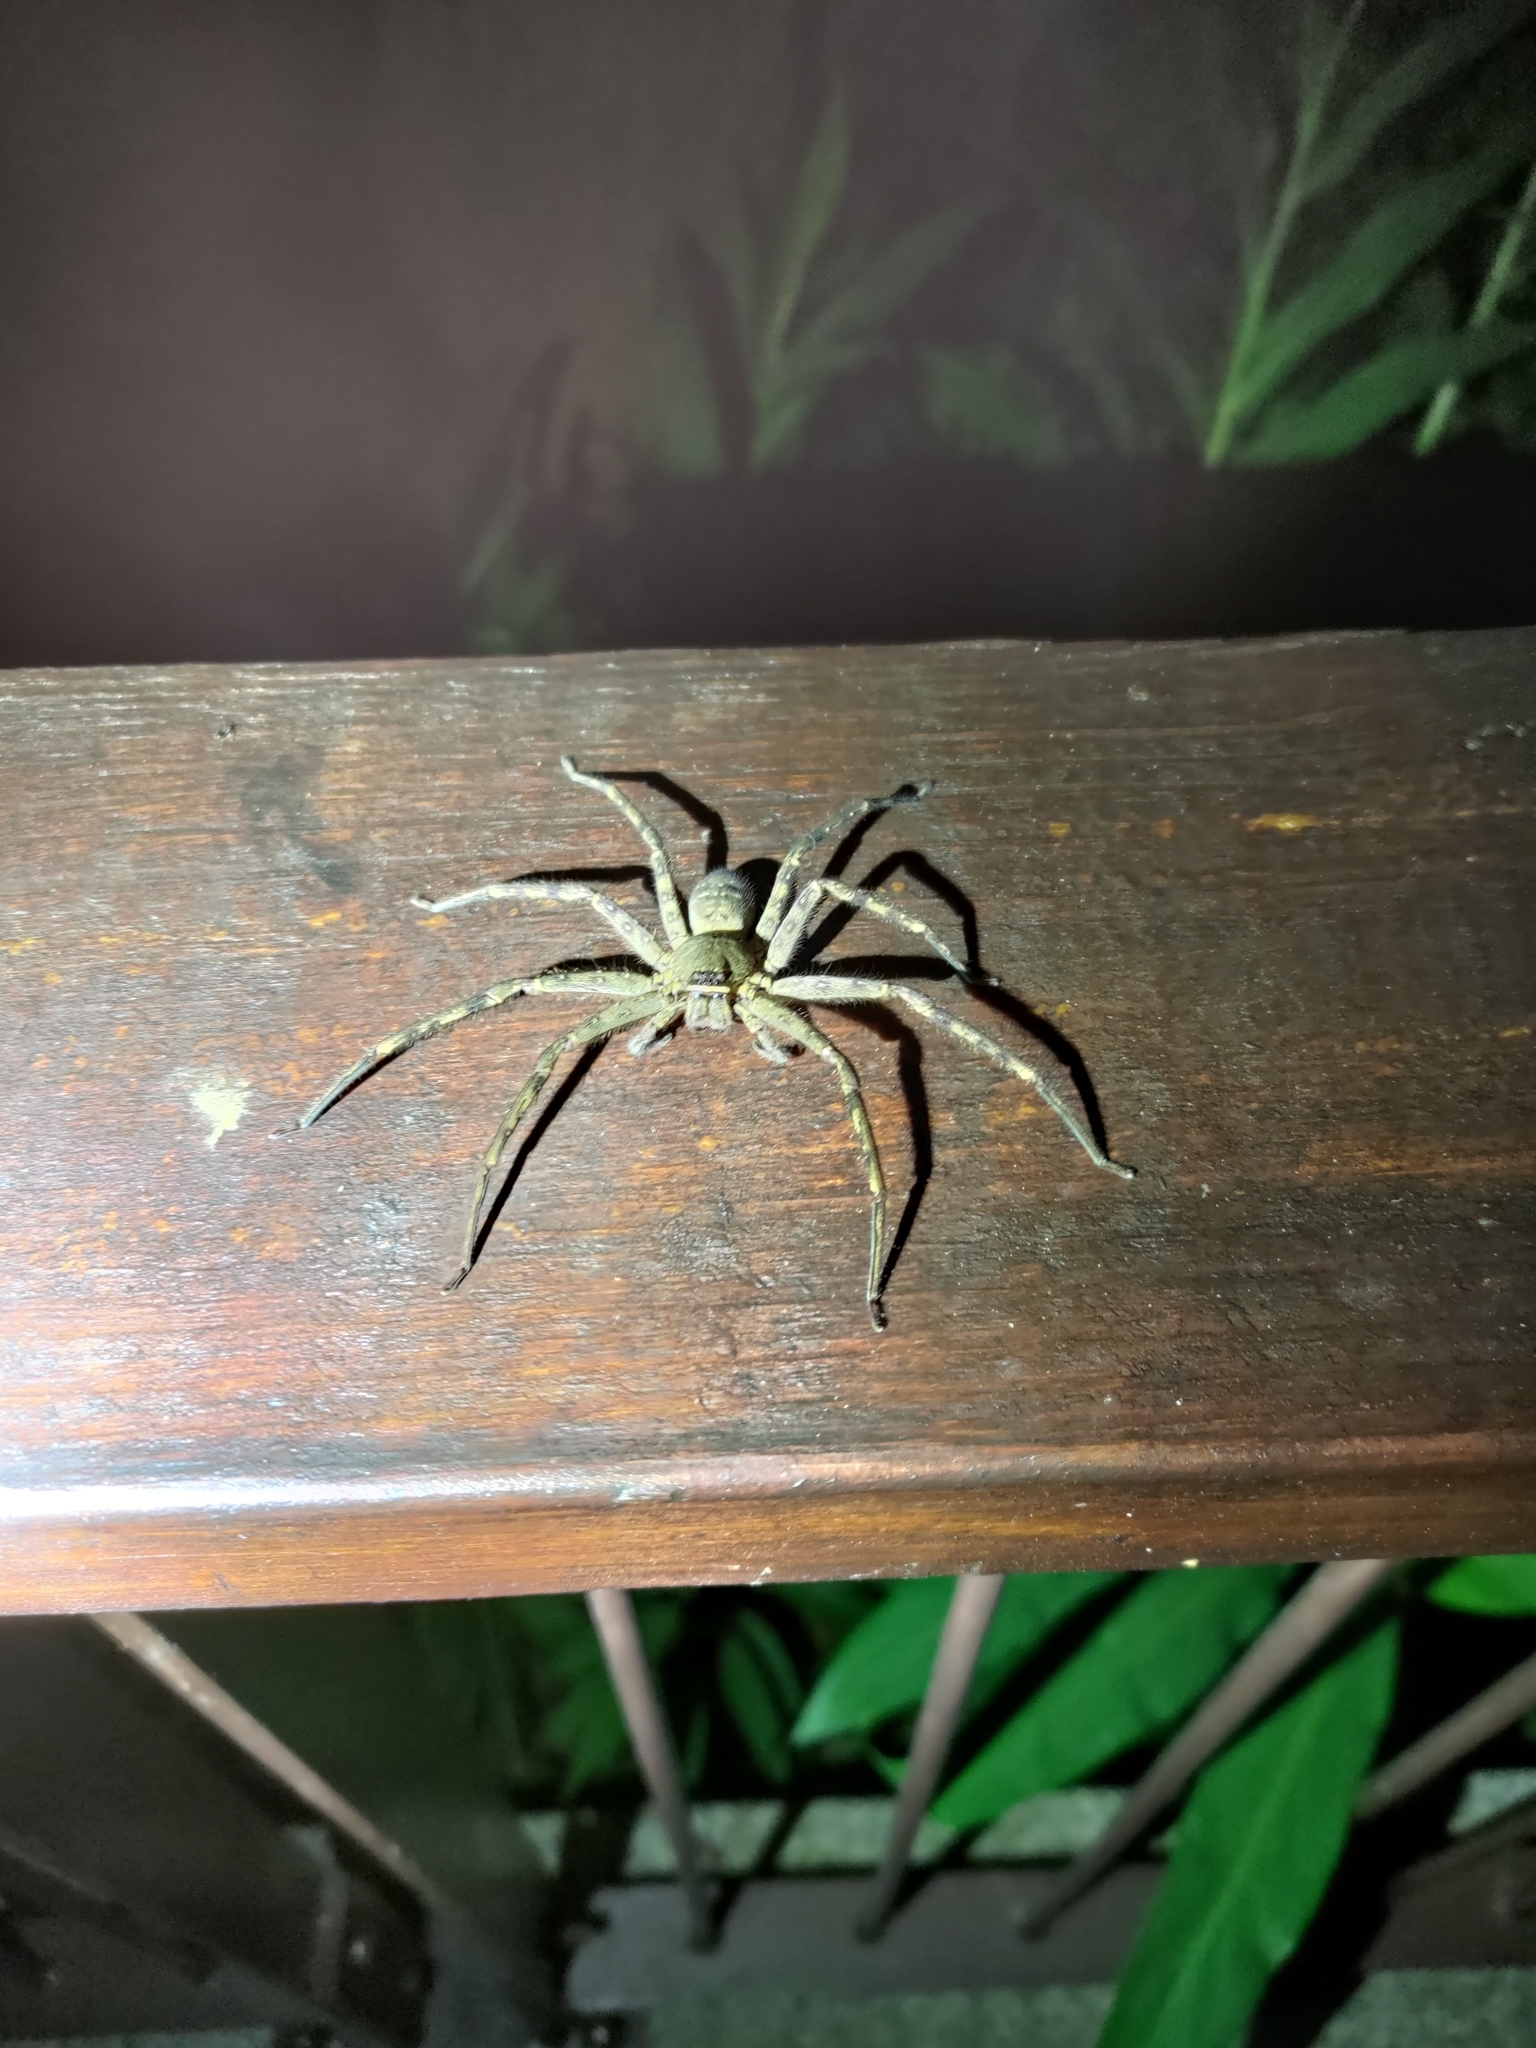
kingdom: Animalia
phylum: Arthropoda
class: Arachnida
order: Araneae
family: Sparassidae
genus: Heteropoda
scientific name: Heteropoda venatoria
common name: Huntsman spider
